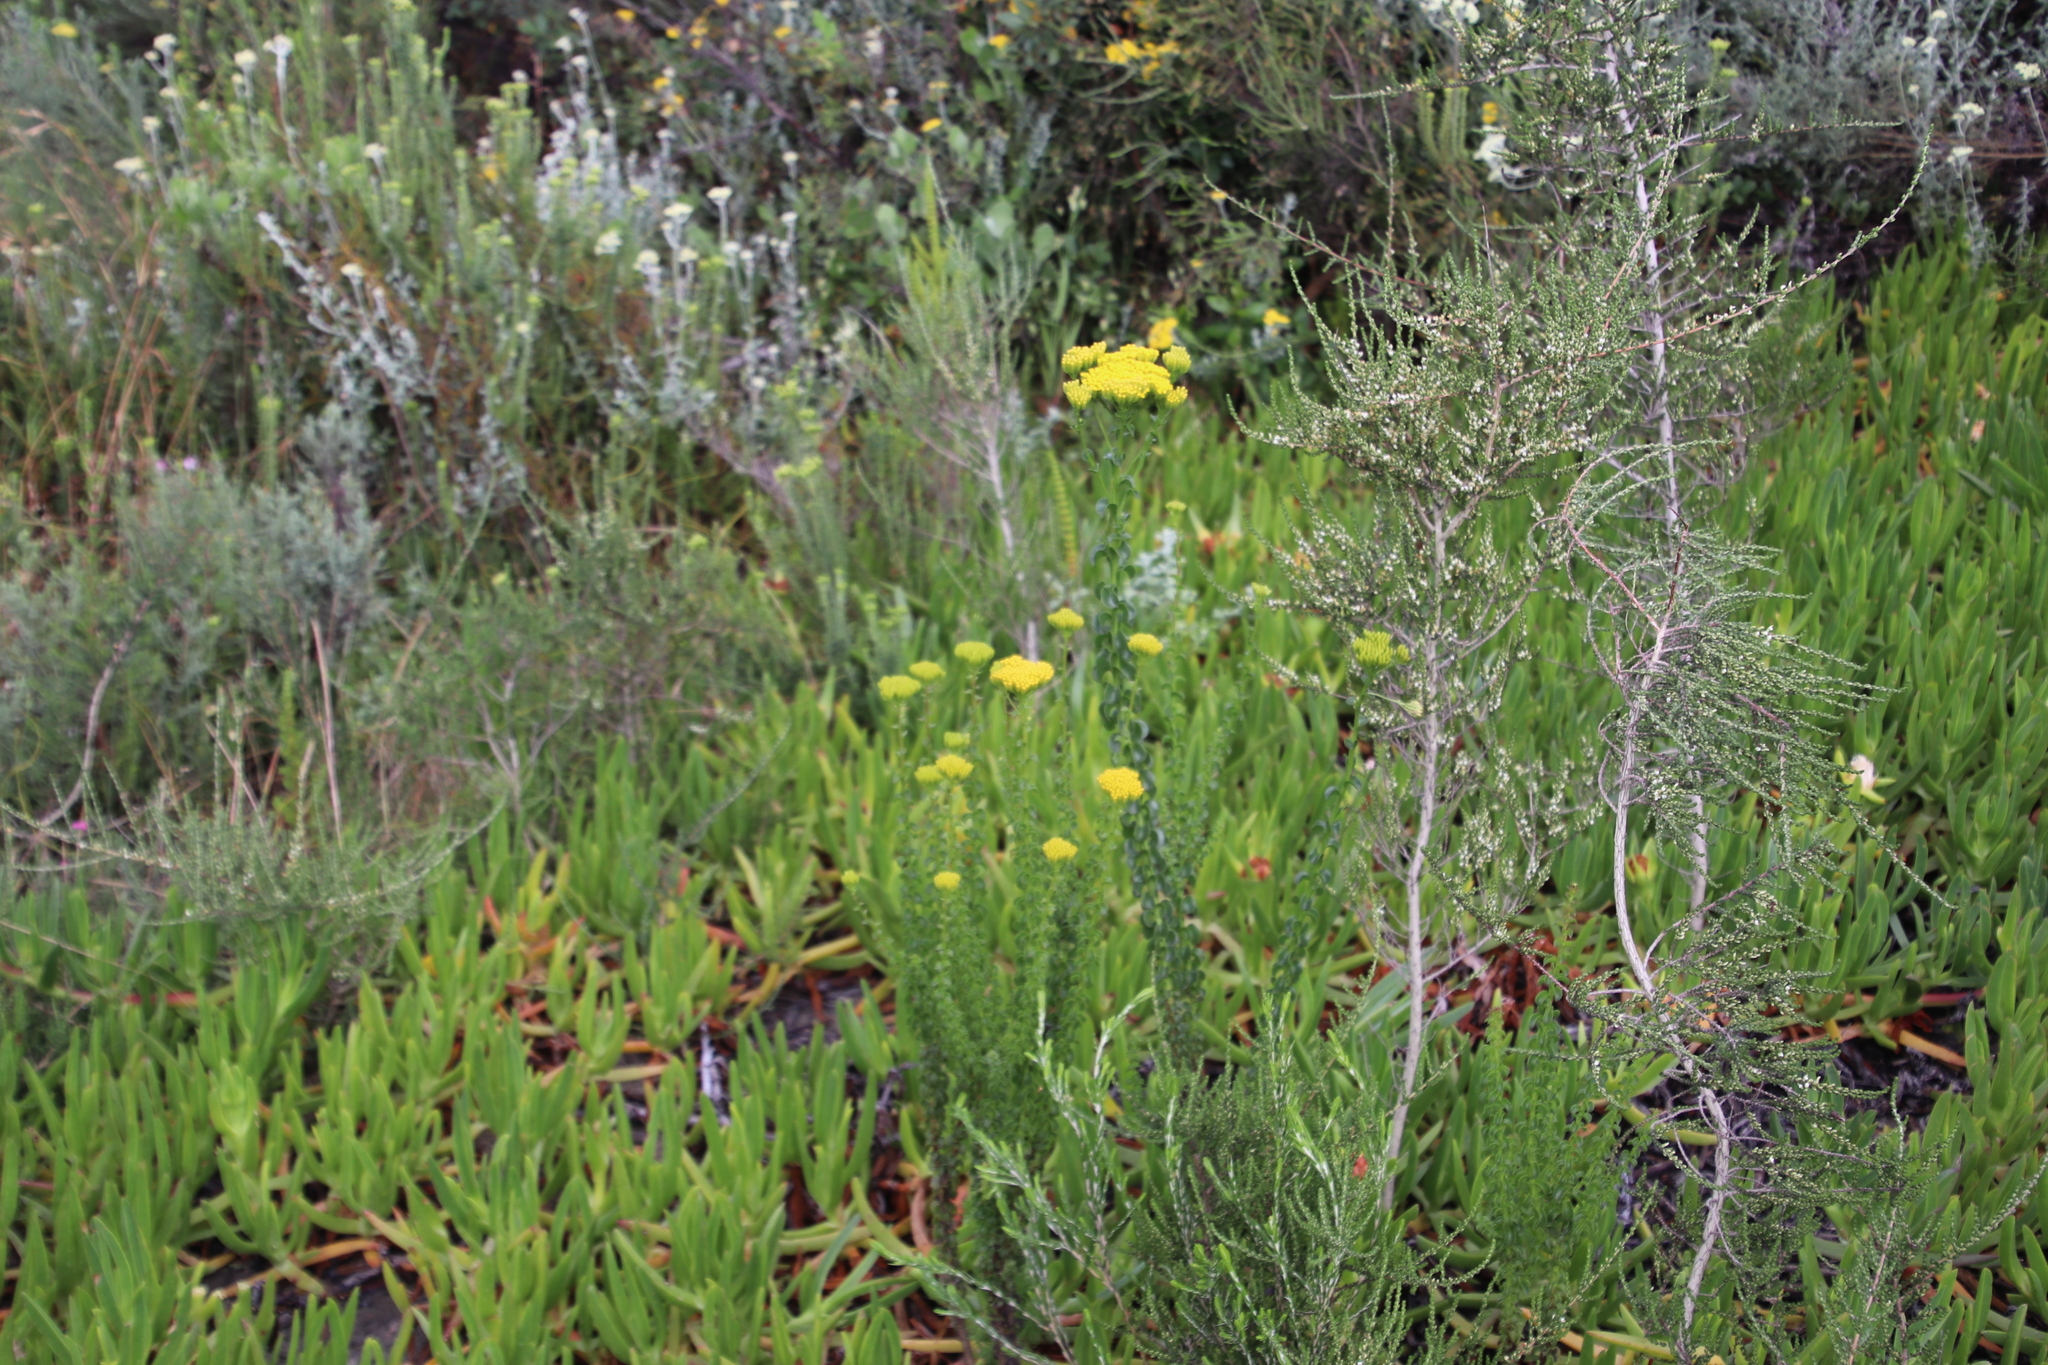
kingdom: Plantae
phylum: Tracheophyta
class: Magnoliopsida
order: Asterales
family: Asteraceae
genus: Athanasia
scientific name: Athanasia dentata
